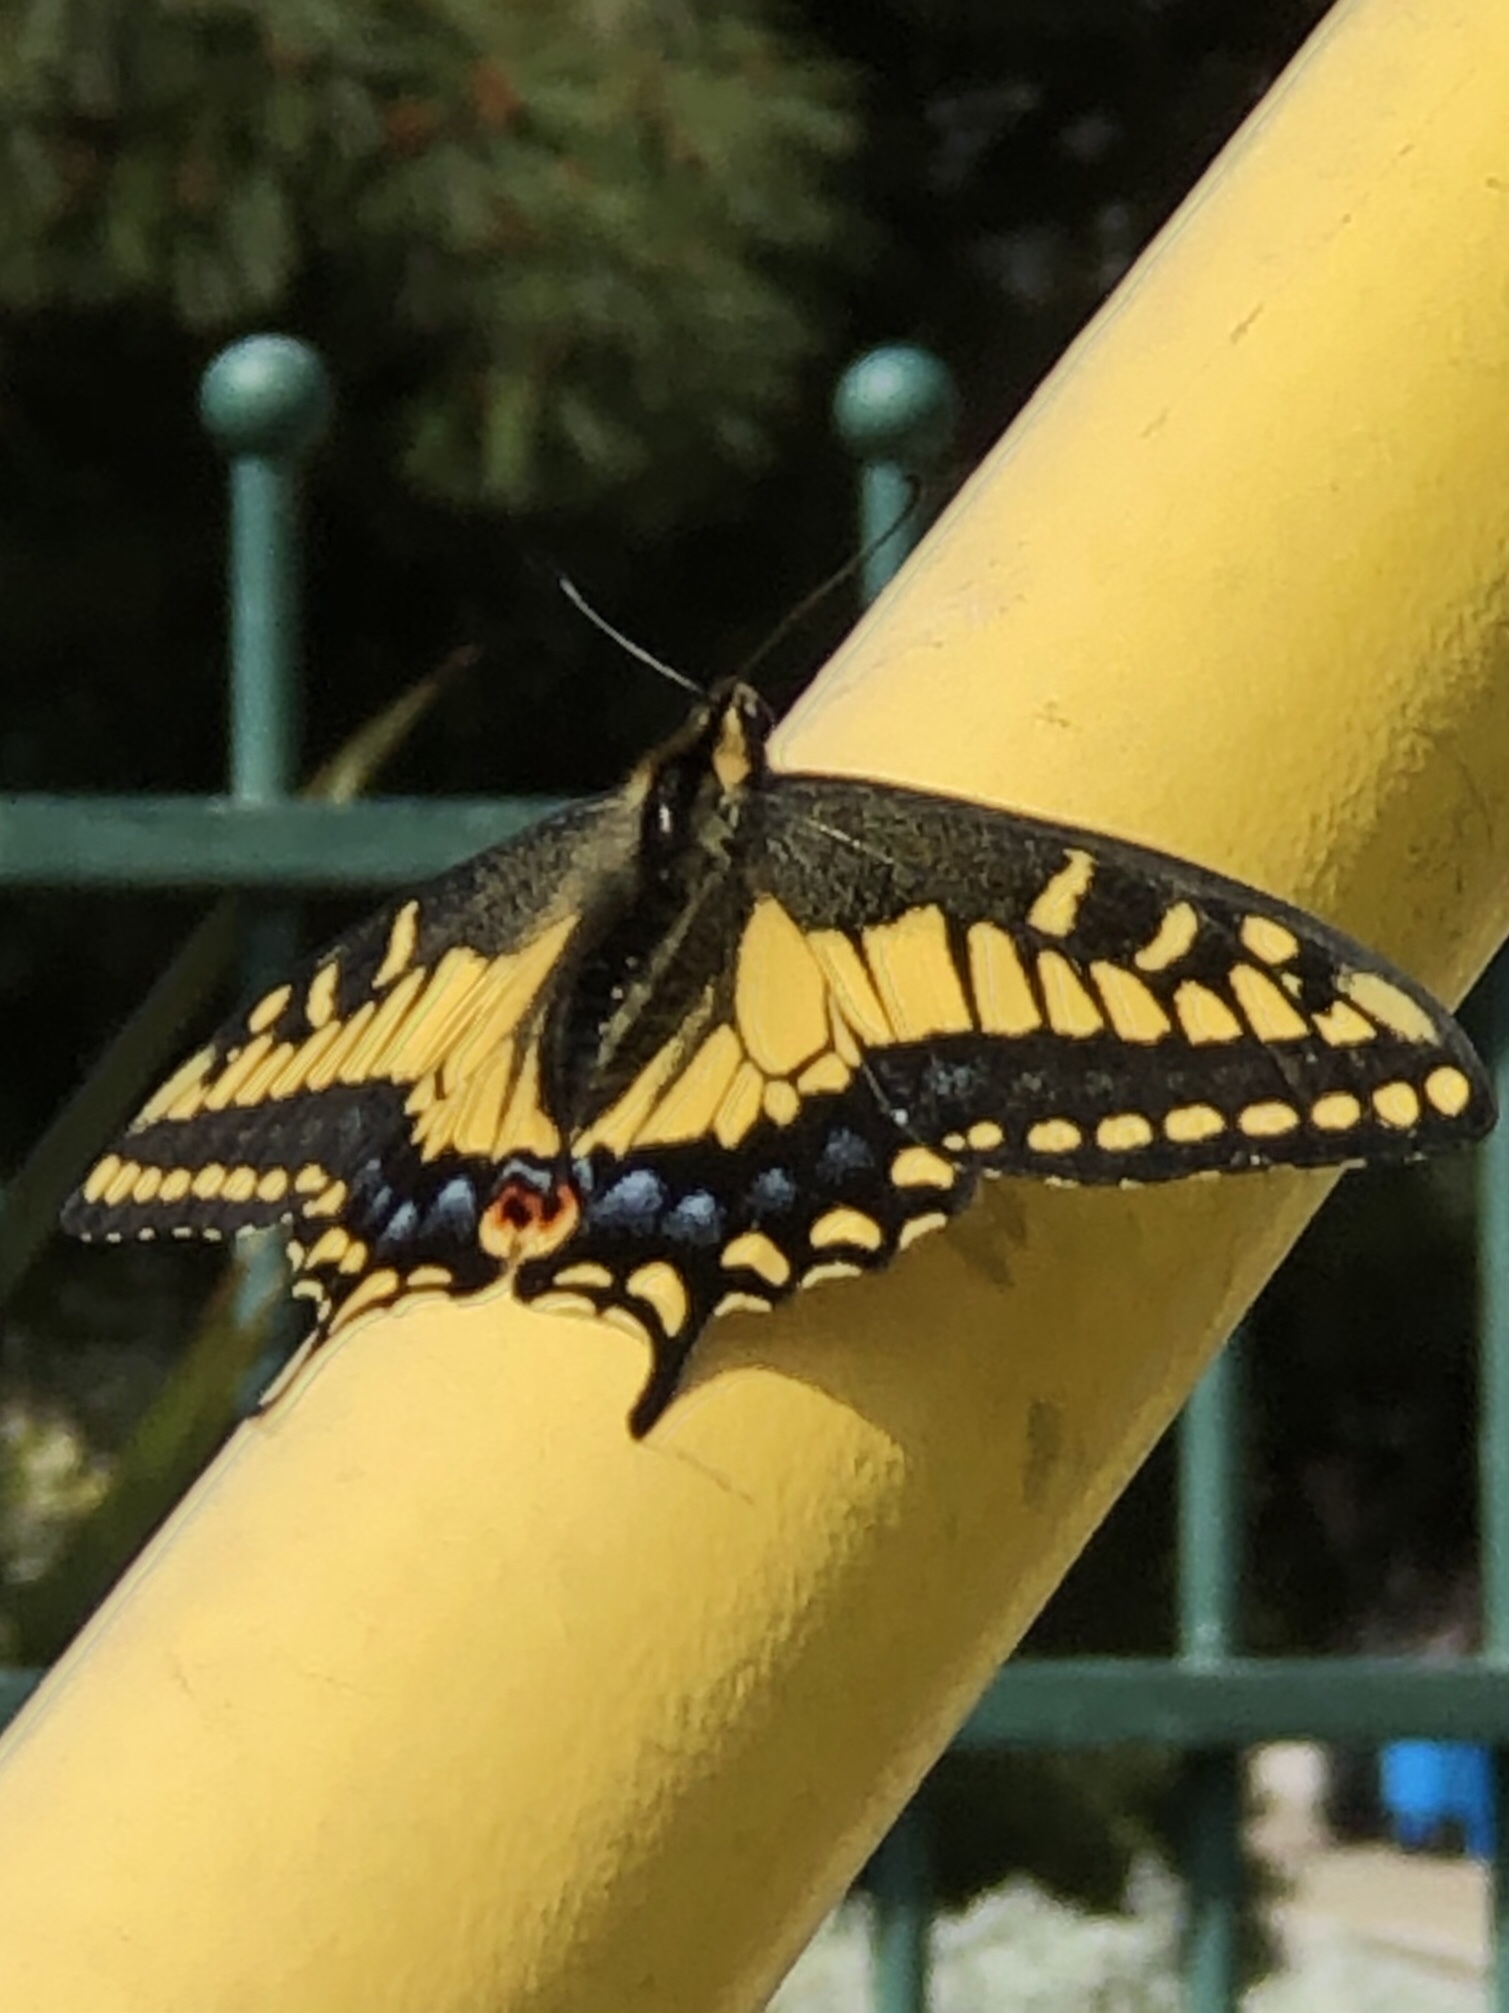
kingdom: Animalia
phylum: Arthropoda
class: Insecta
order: Lepidoptera
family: Papilionidae
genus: Papilio
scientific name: Papilio zelicaon
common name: Anise swallowtail
